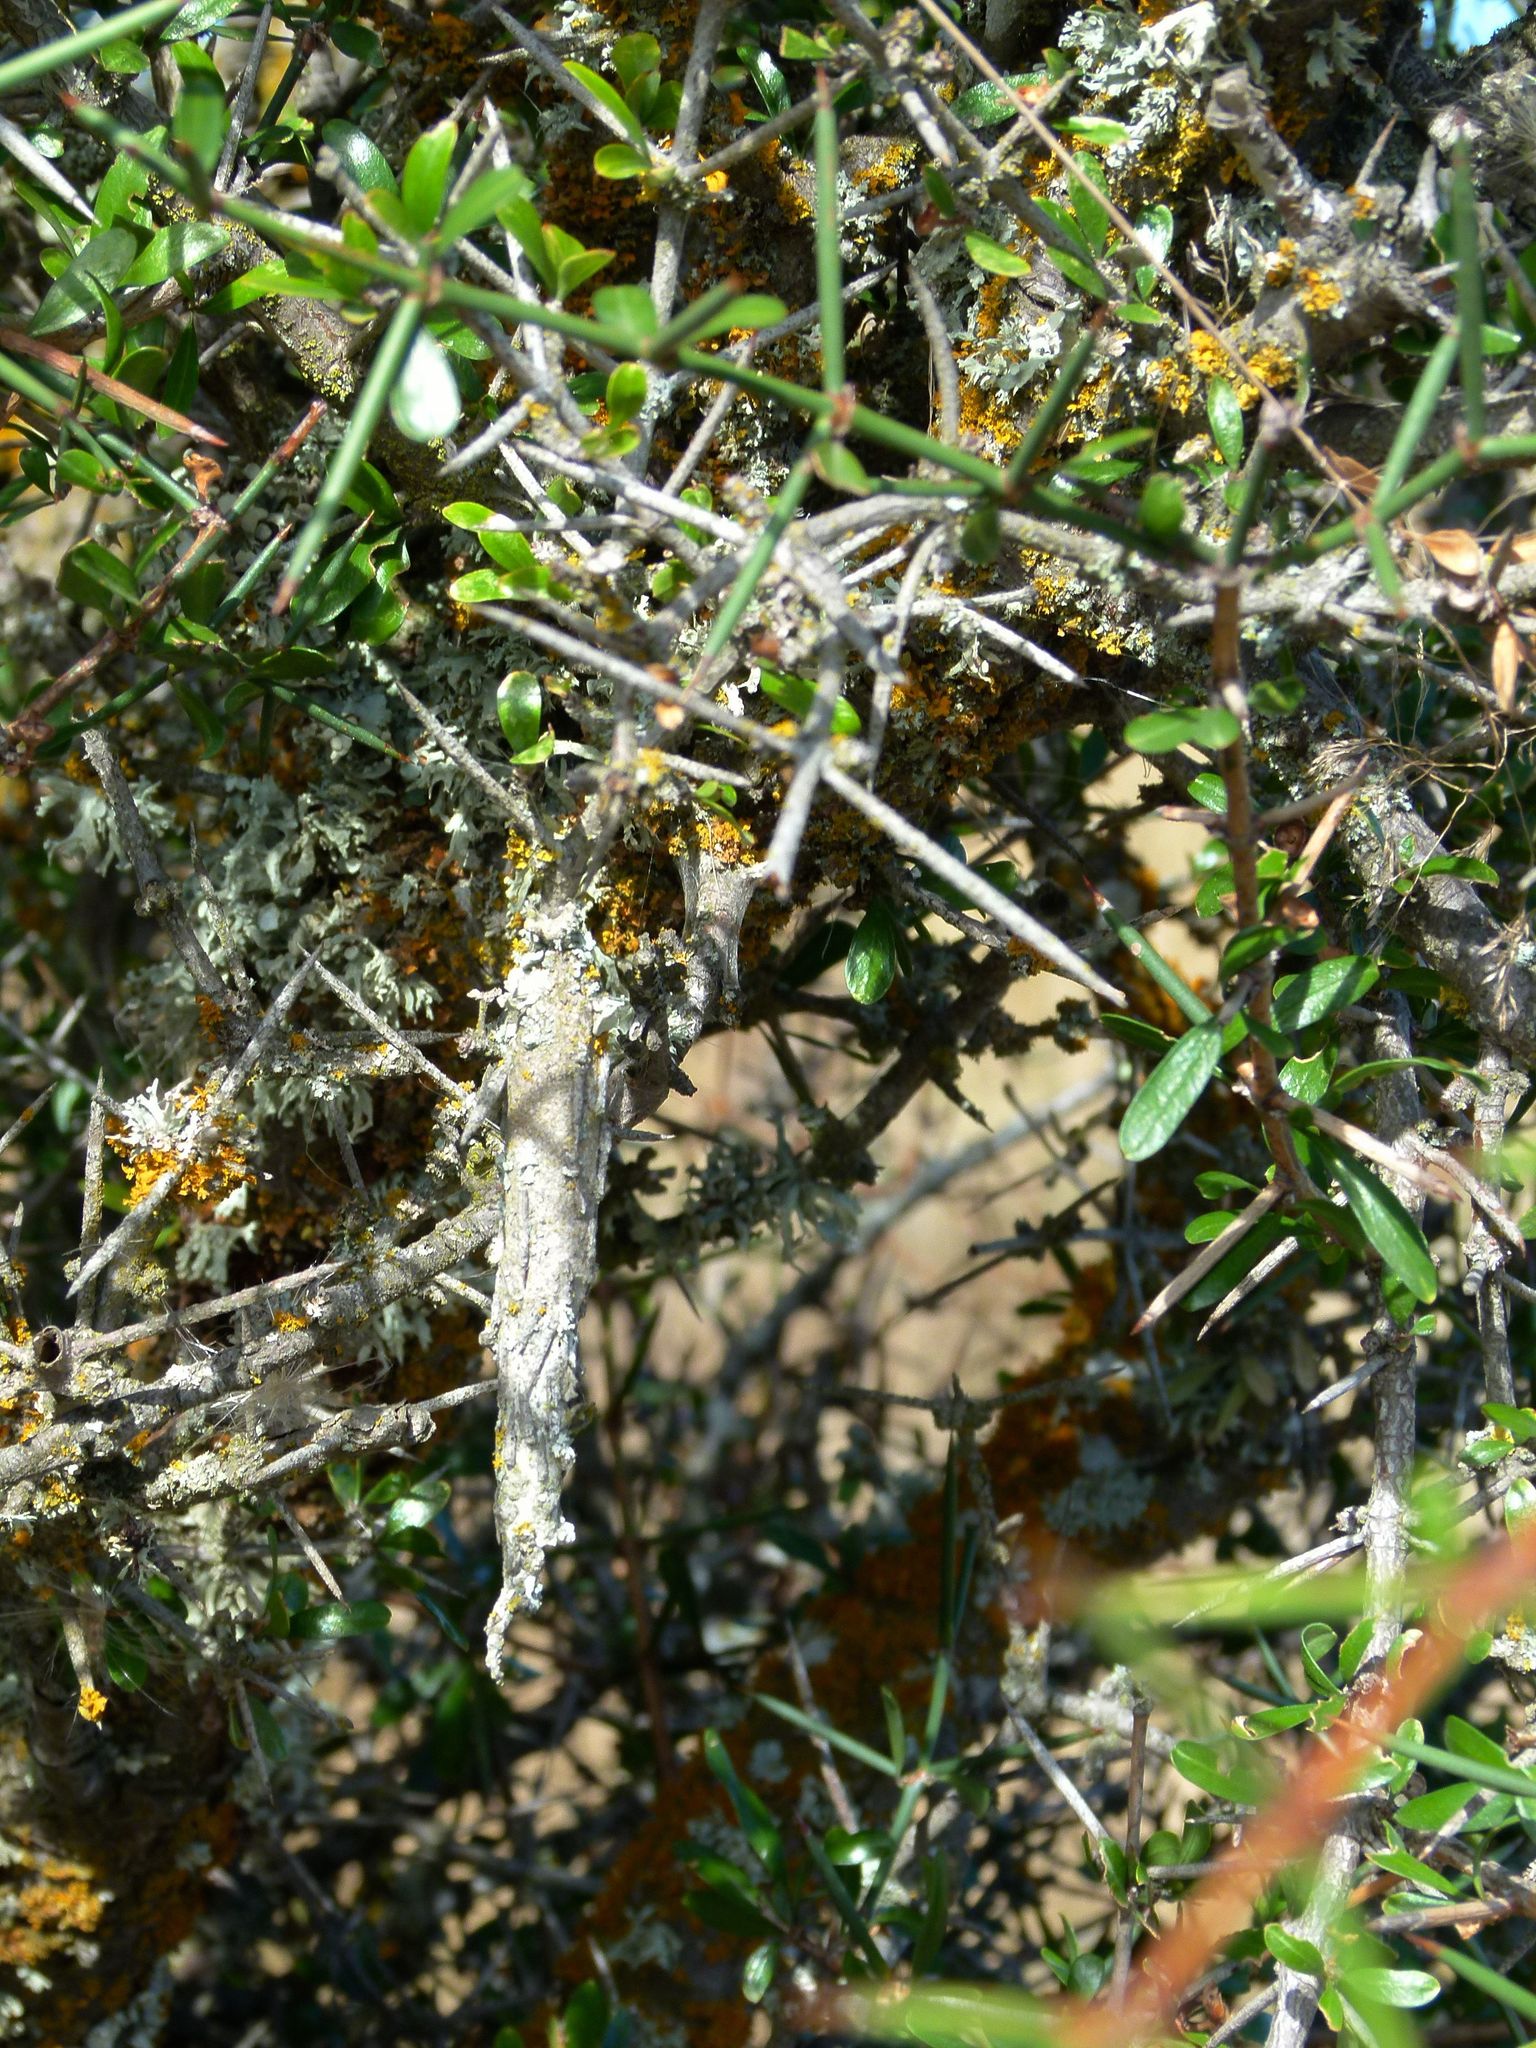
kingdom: Animalia
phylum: Arthropoda
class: Insecta
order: Lepidoptera
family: Psychidae
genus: Liothula
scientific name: Liothula omnivora
